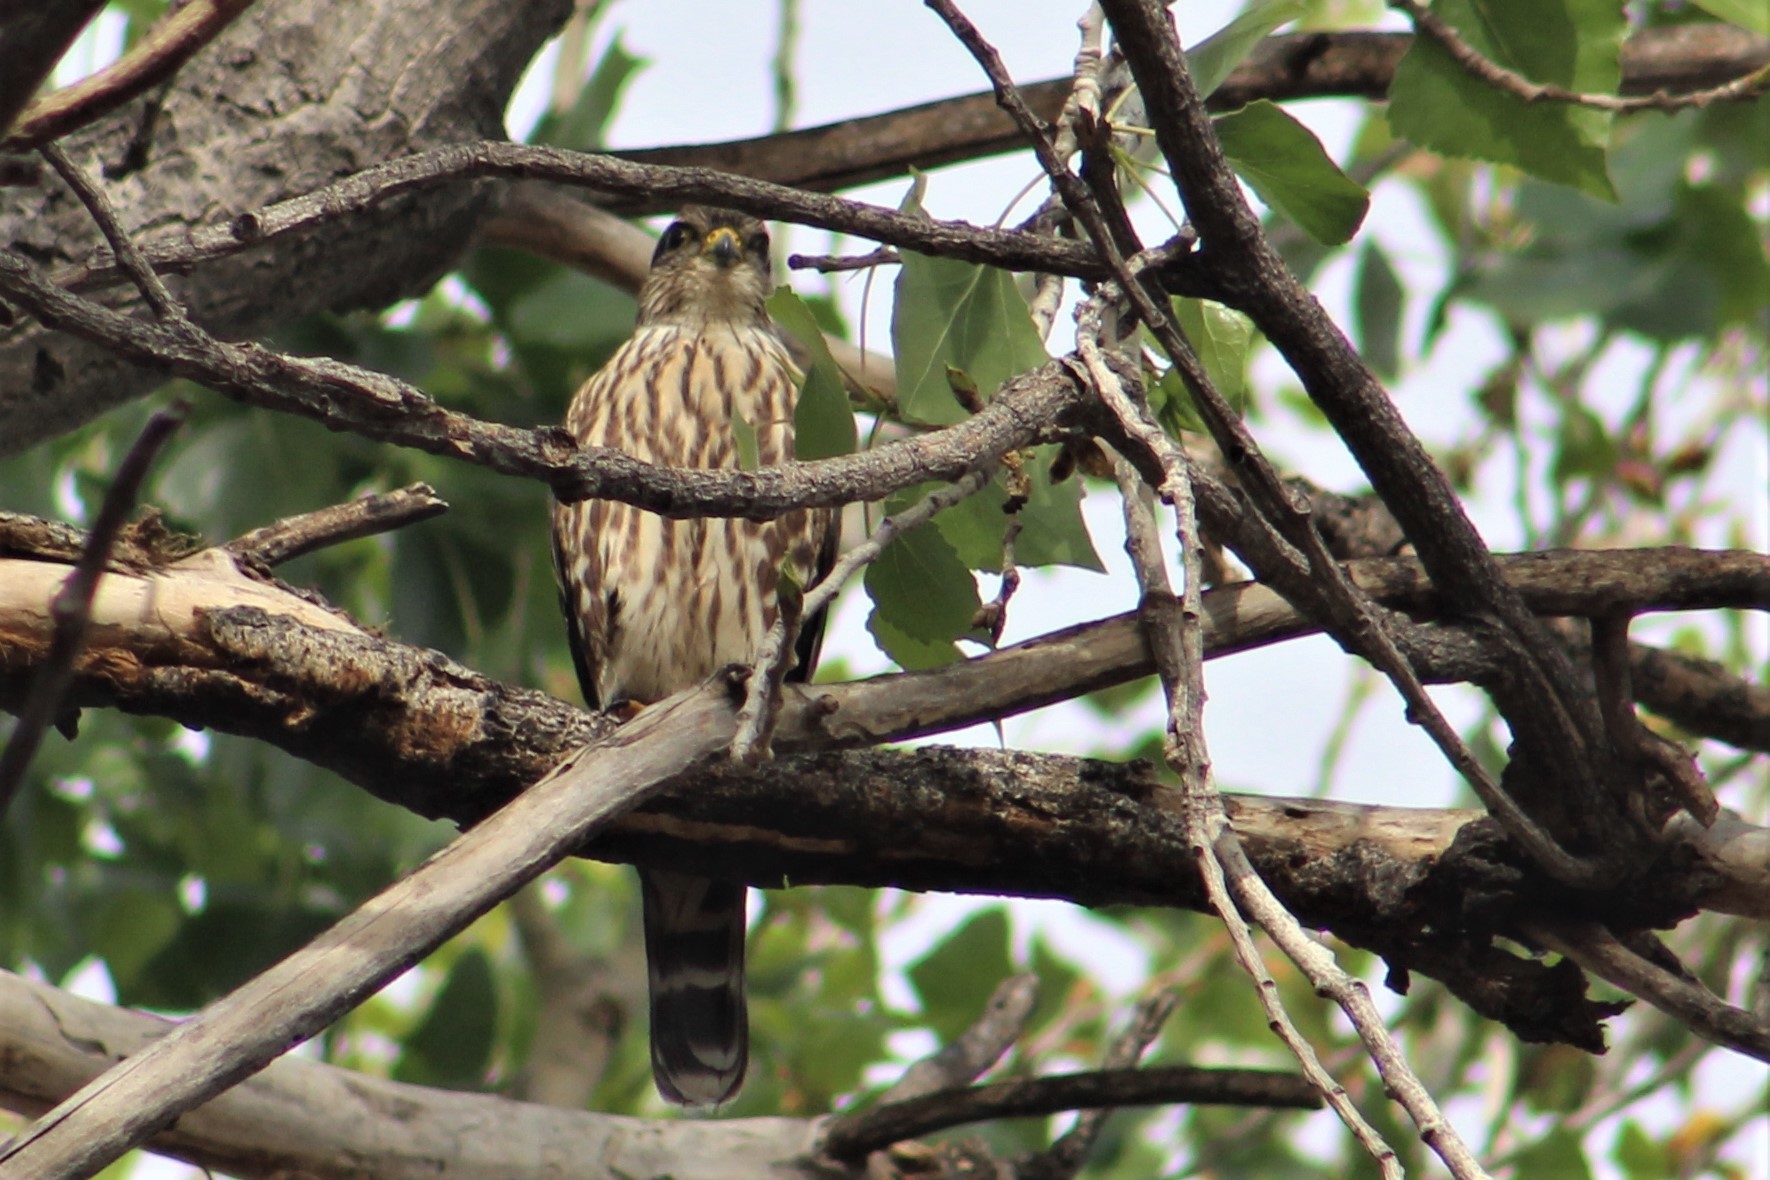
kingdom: Animalia
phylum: Chordata
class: Aves
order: Falconiformes
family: Falconidae
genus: Falco
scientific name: Falco columbarius
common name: Merlin
